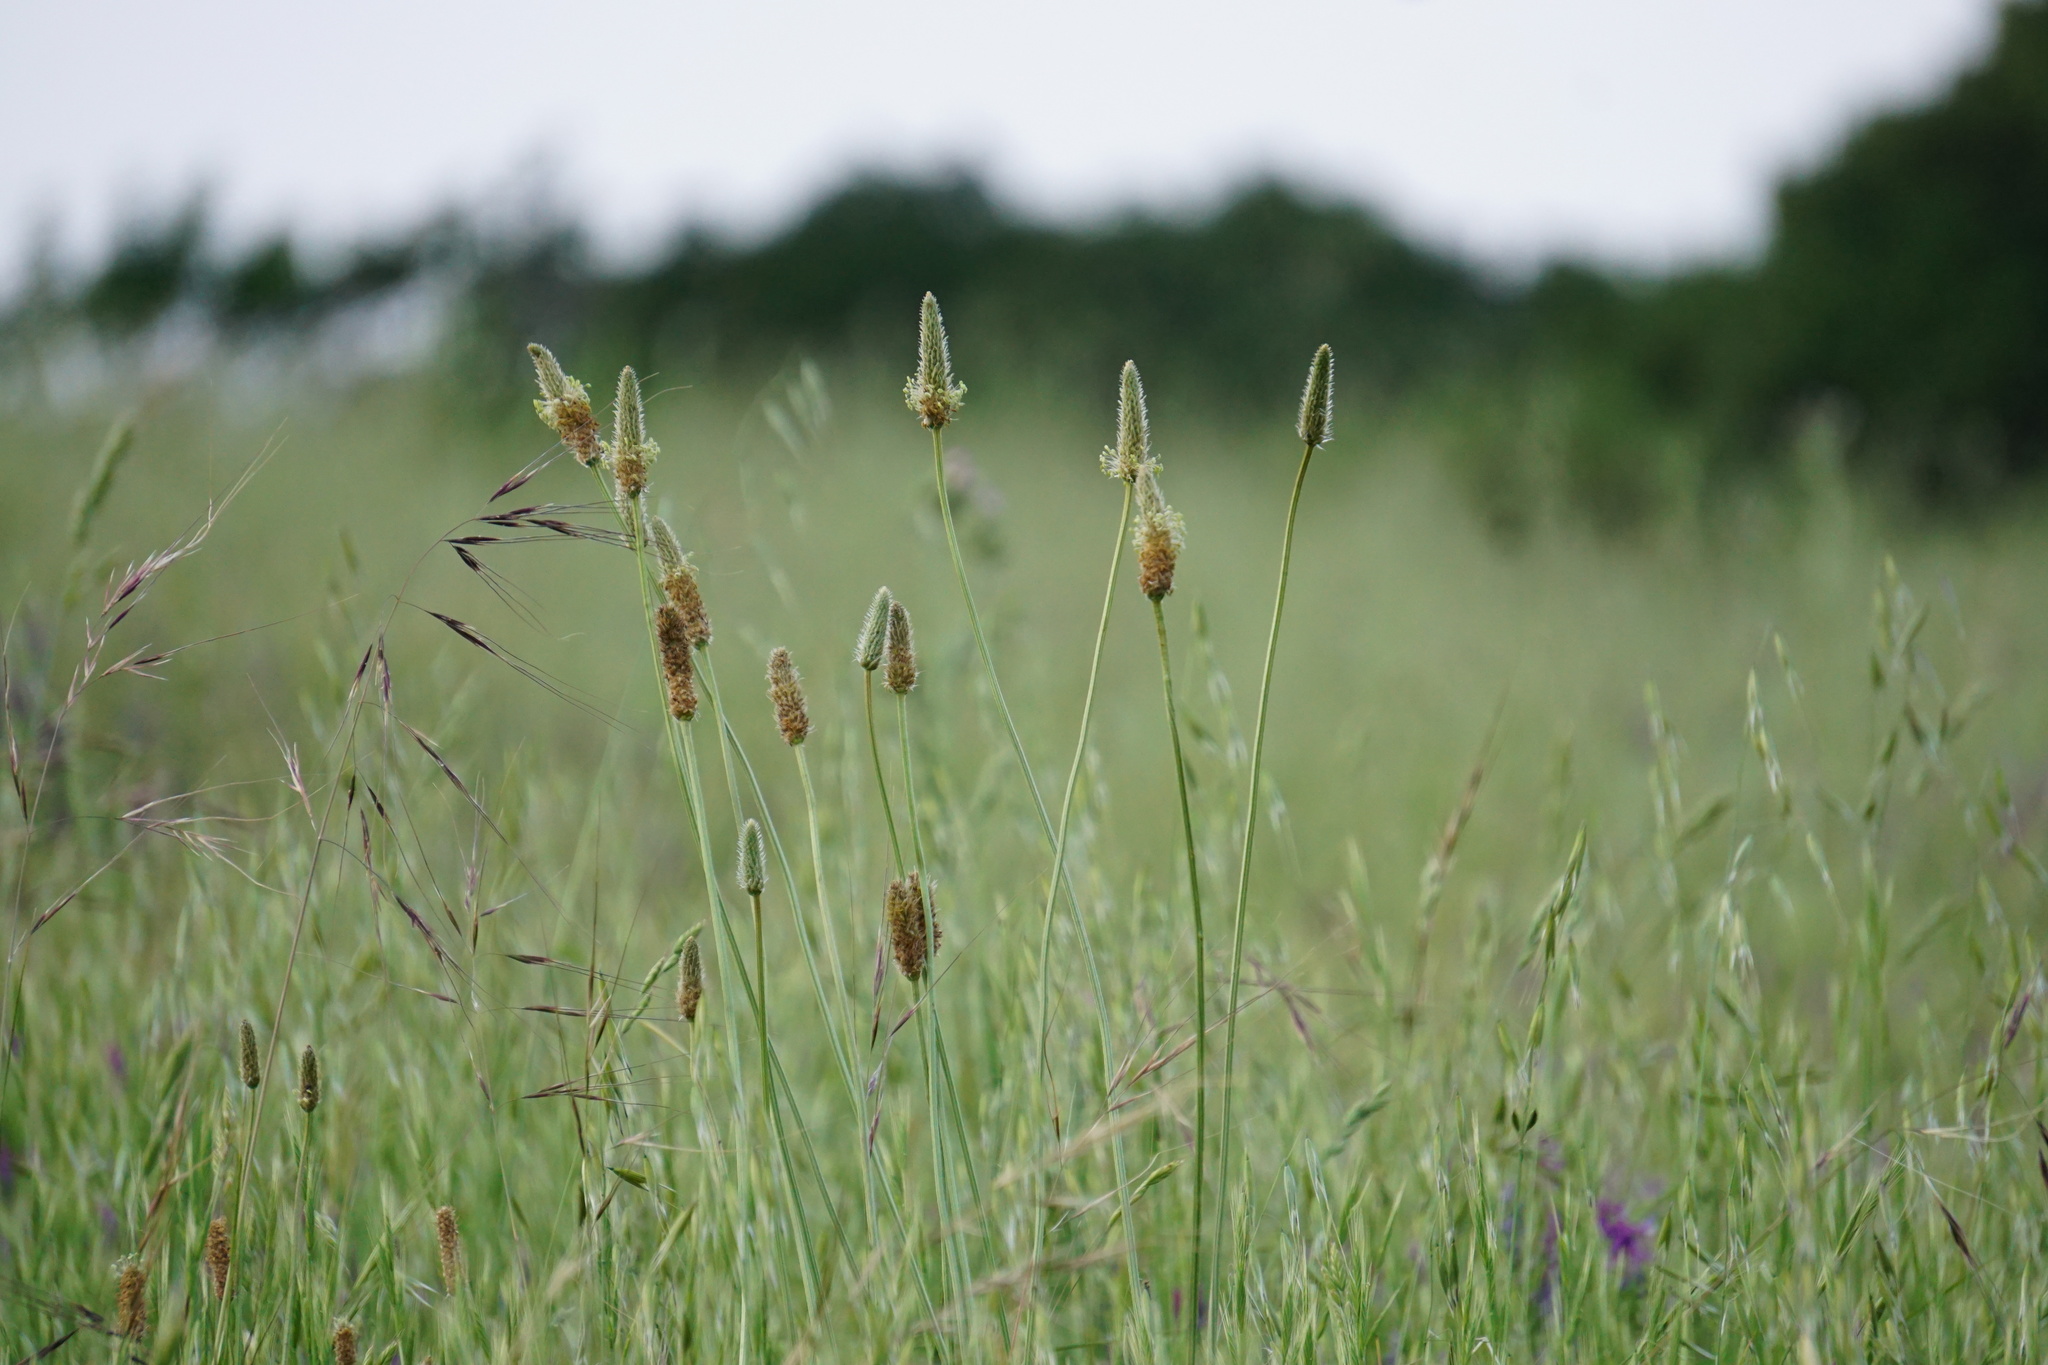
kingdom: Plantae
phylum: Tracheophyta
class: Magnoliopsida
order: Lamiales
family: Plantaginaceae
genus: Plantago
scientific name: Plantago lanceolata
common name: Ribwort plantain
